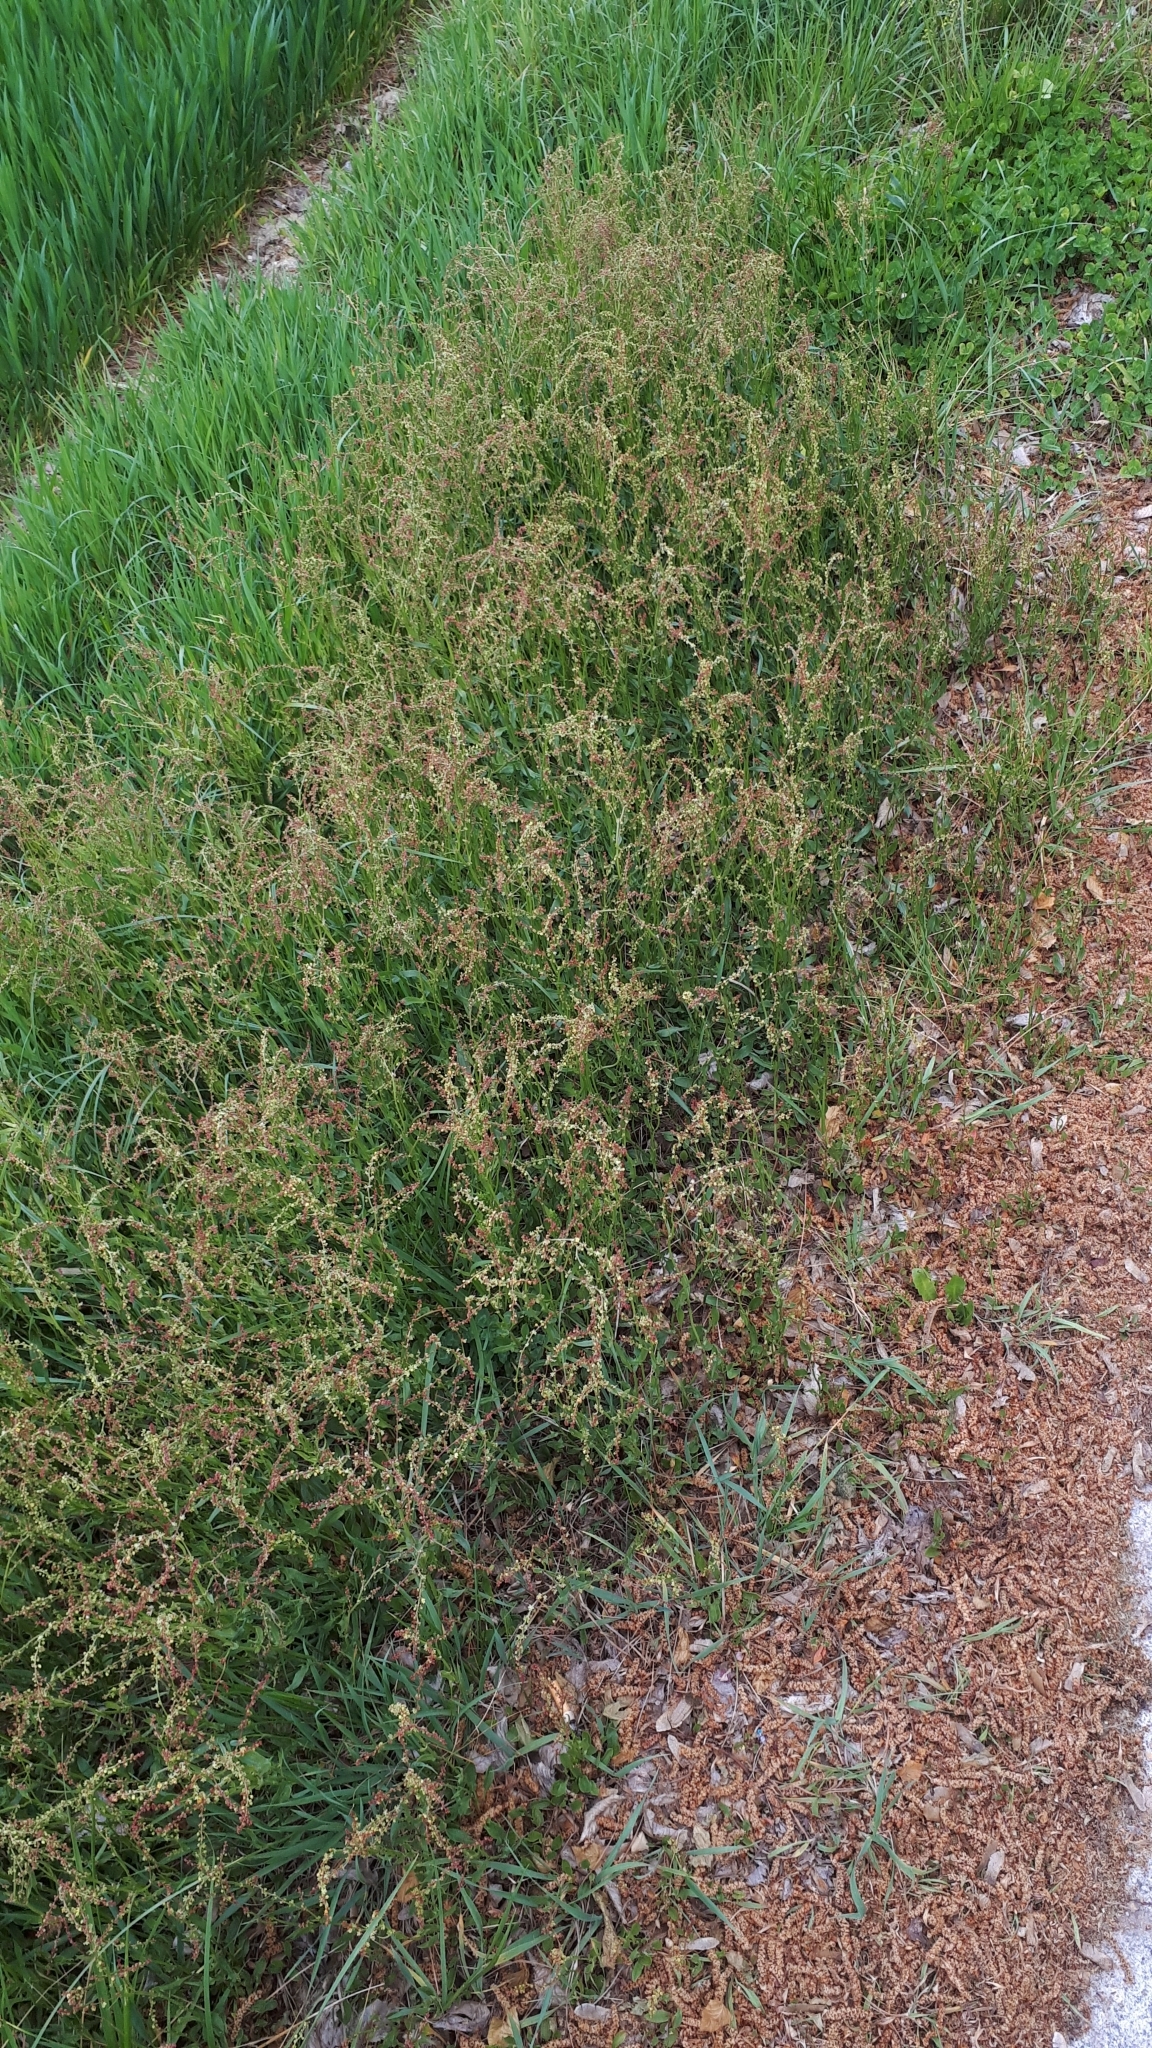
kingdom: Plantae
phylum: Tracheophyta
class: Magnoliopsida
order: Caryophyllales
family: Polygonaceae
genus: Rumex
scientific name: Rumex acetosella
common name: Common sheep sorrel
